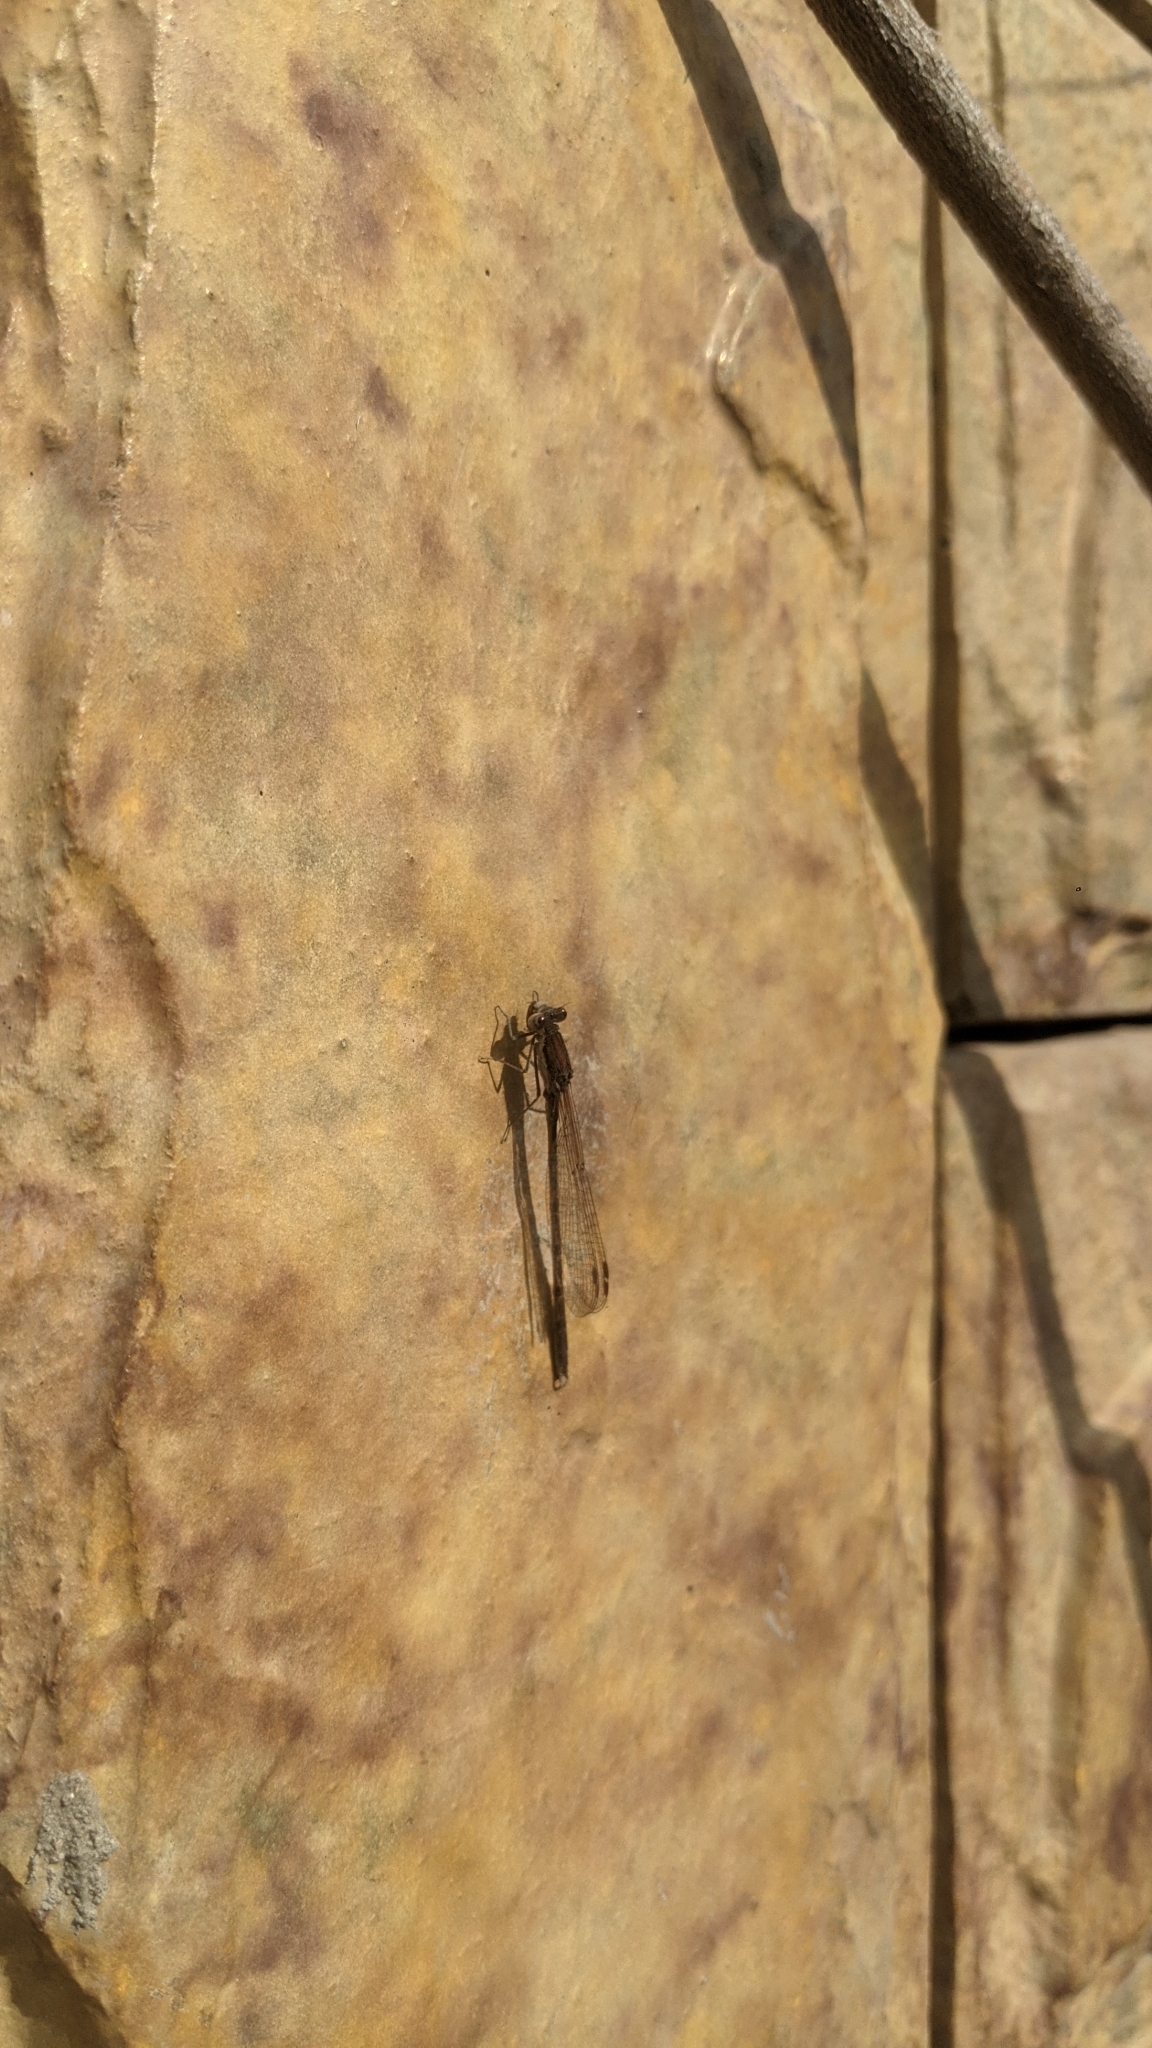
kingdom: Animalia
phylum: Arthropoda
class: Insecta
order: Odonata
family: Lestidae
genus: Sympecma
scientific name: Sympecma fusca
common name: Common winter damsel
